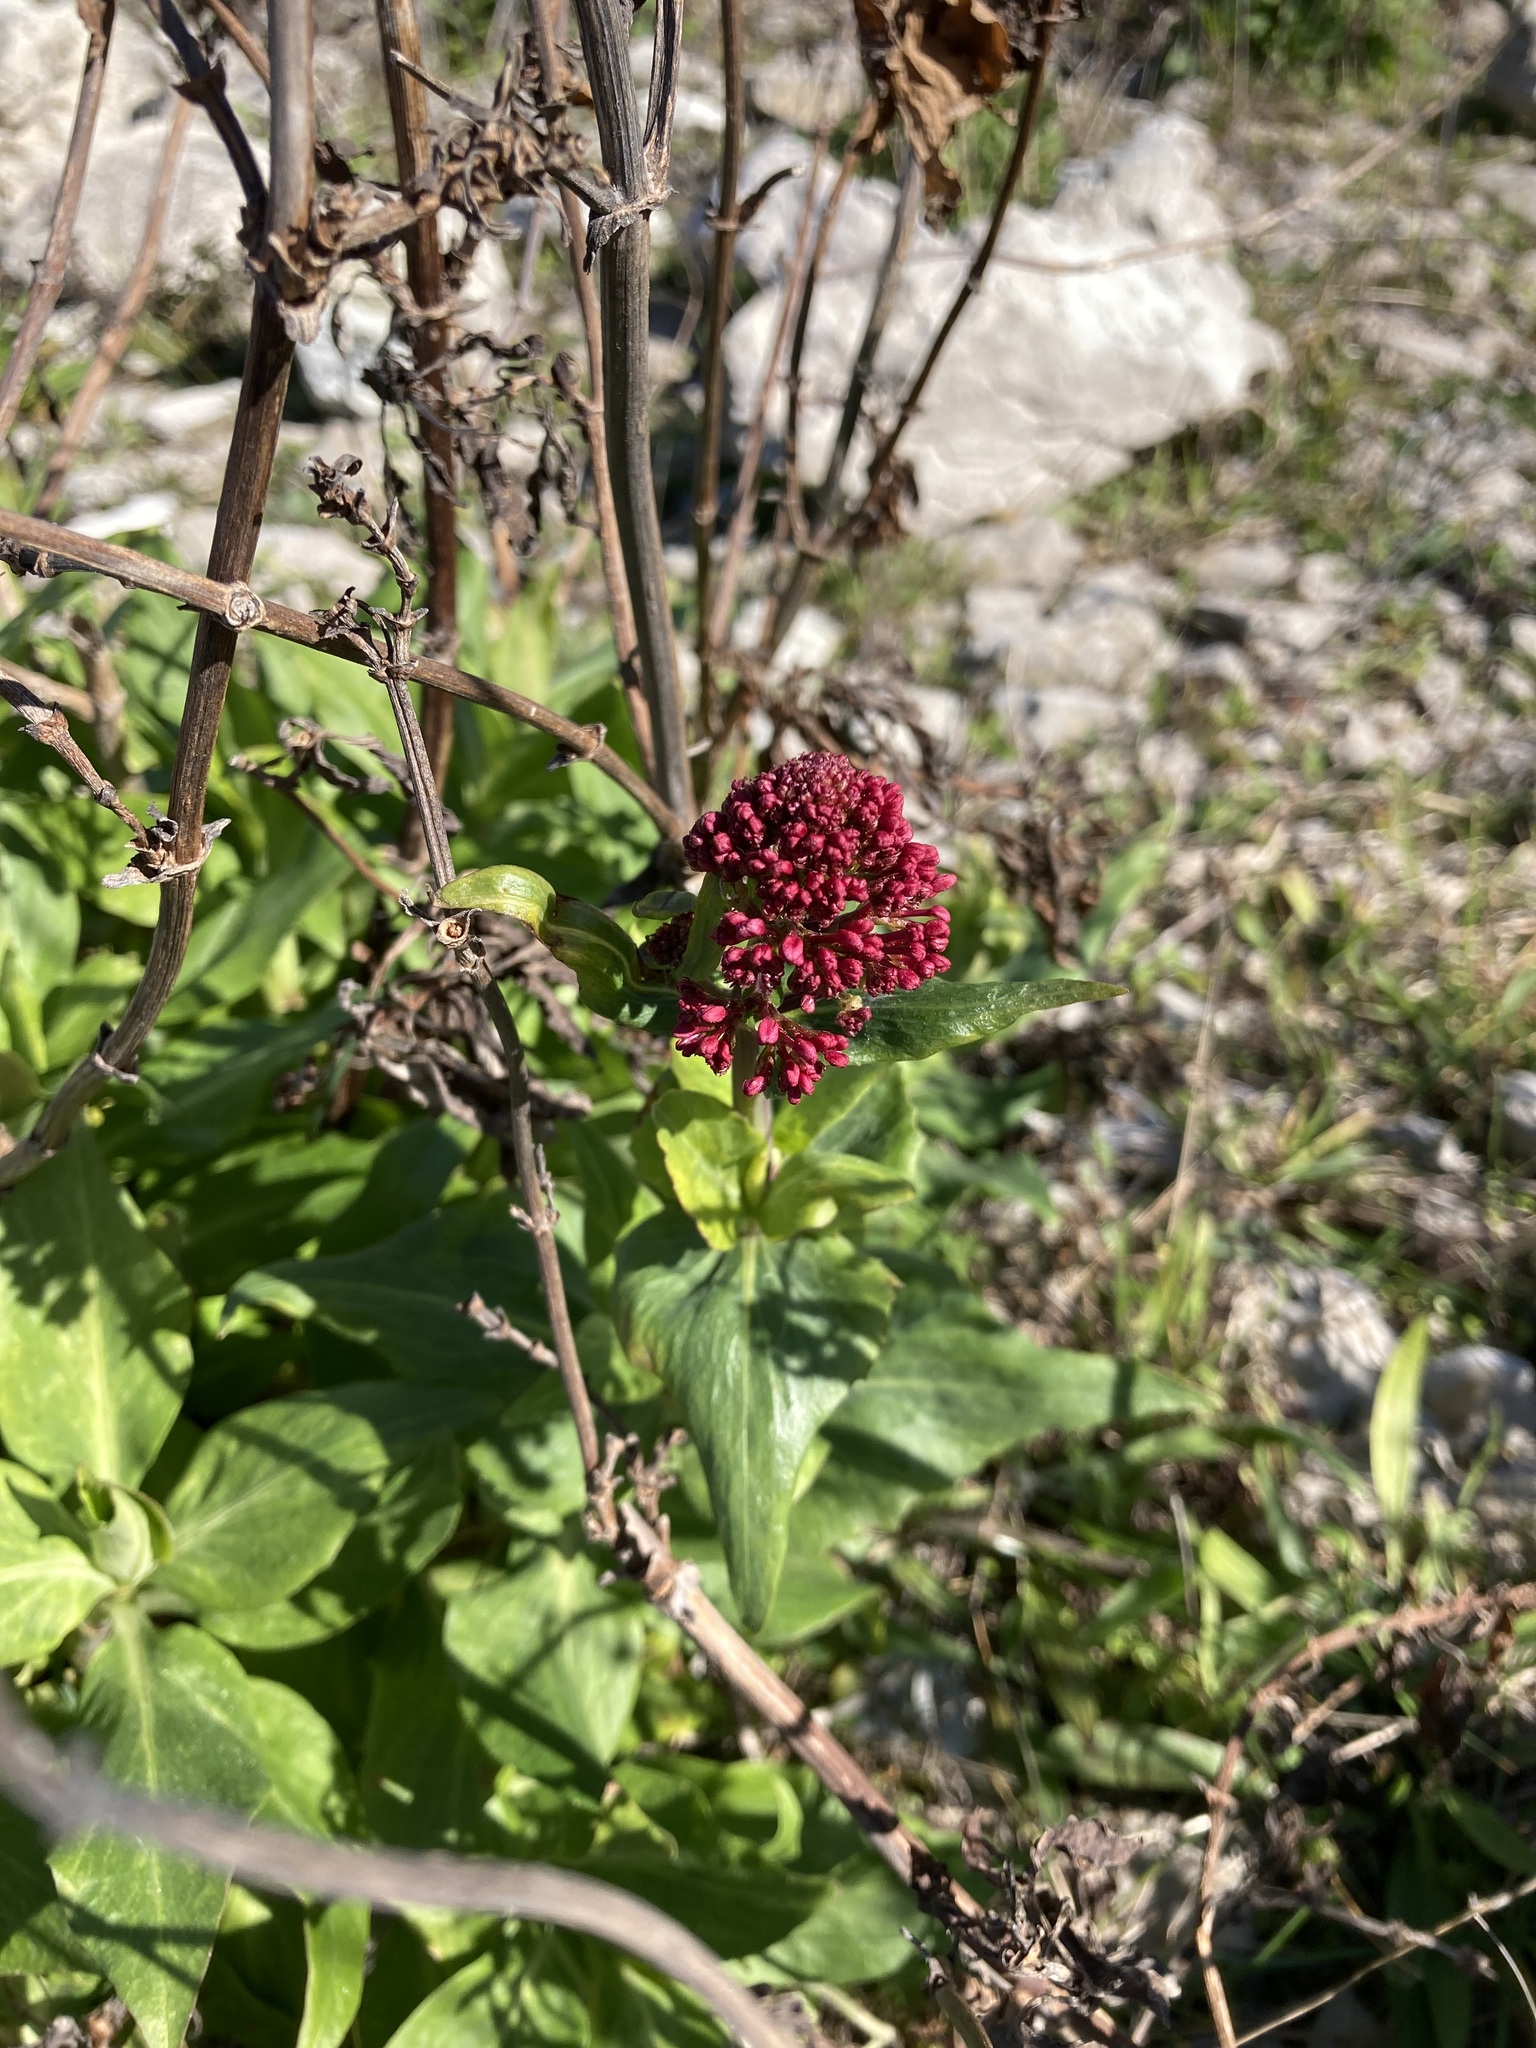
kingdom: Plantae
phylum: Tracheophyta
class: Magnoliopsida
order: Dipsacales
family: Caprifoliaceae
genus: Centranthus
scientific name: Centranthus ruber
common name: Red valerian
